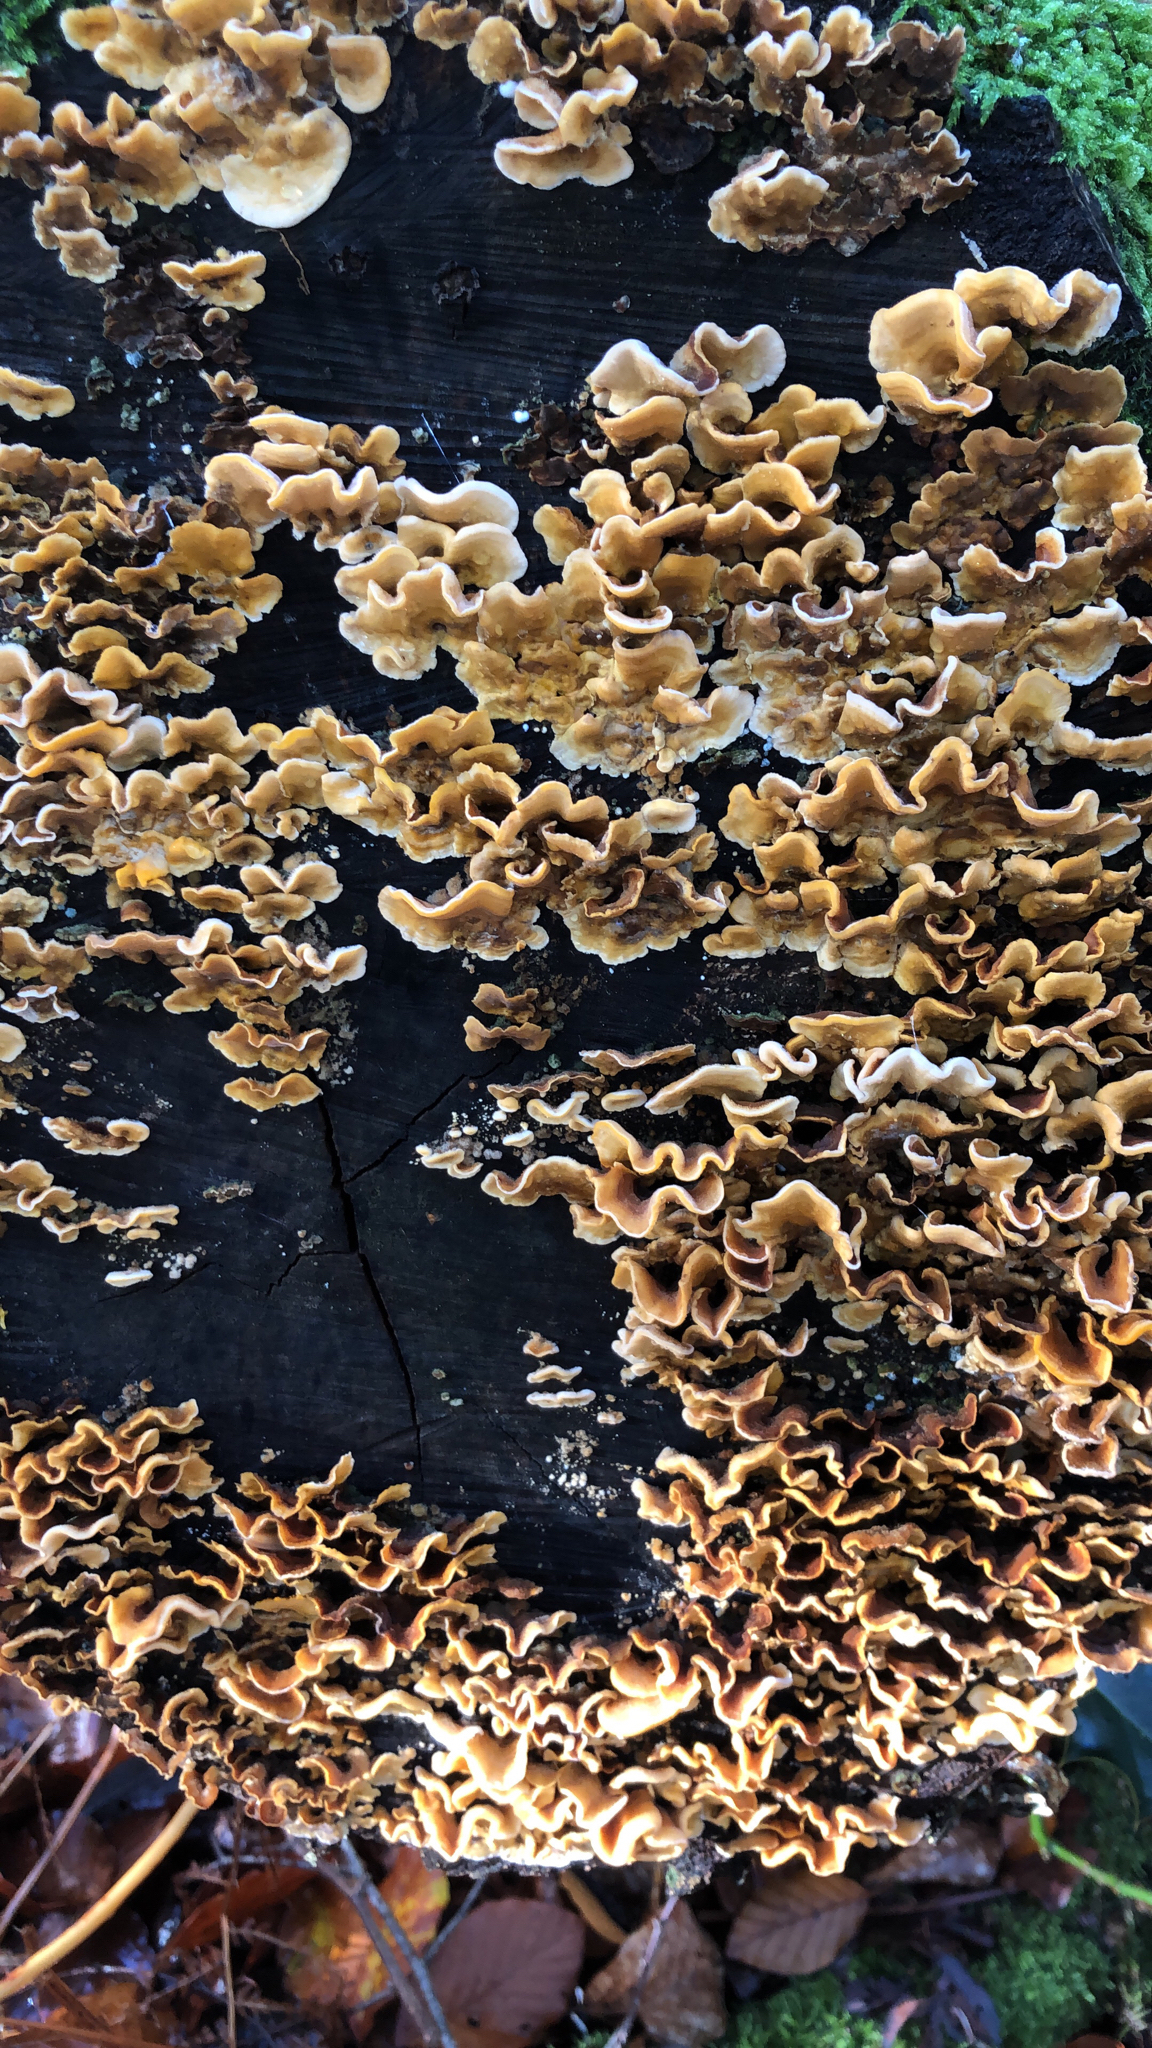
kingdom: Fungi
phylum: Basidiomycota
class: Agaricomycetes
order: Russulales
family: Stereaceae
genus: Stereum
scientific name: Stereum hirsutum
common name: Hairy curtain crust
